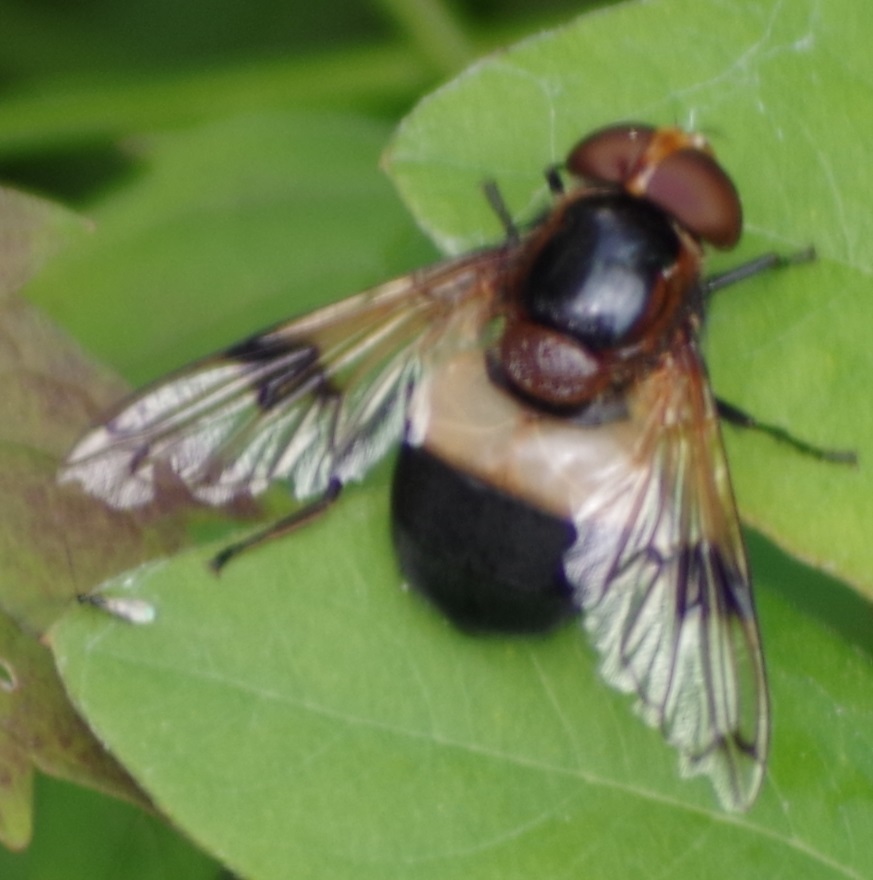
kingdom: Animalia
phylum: Arthropoda
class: Insecta
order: Diptera
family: Syrphidae
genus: Volucella
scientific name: Volucella pellucens
